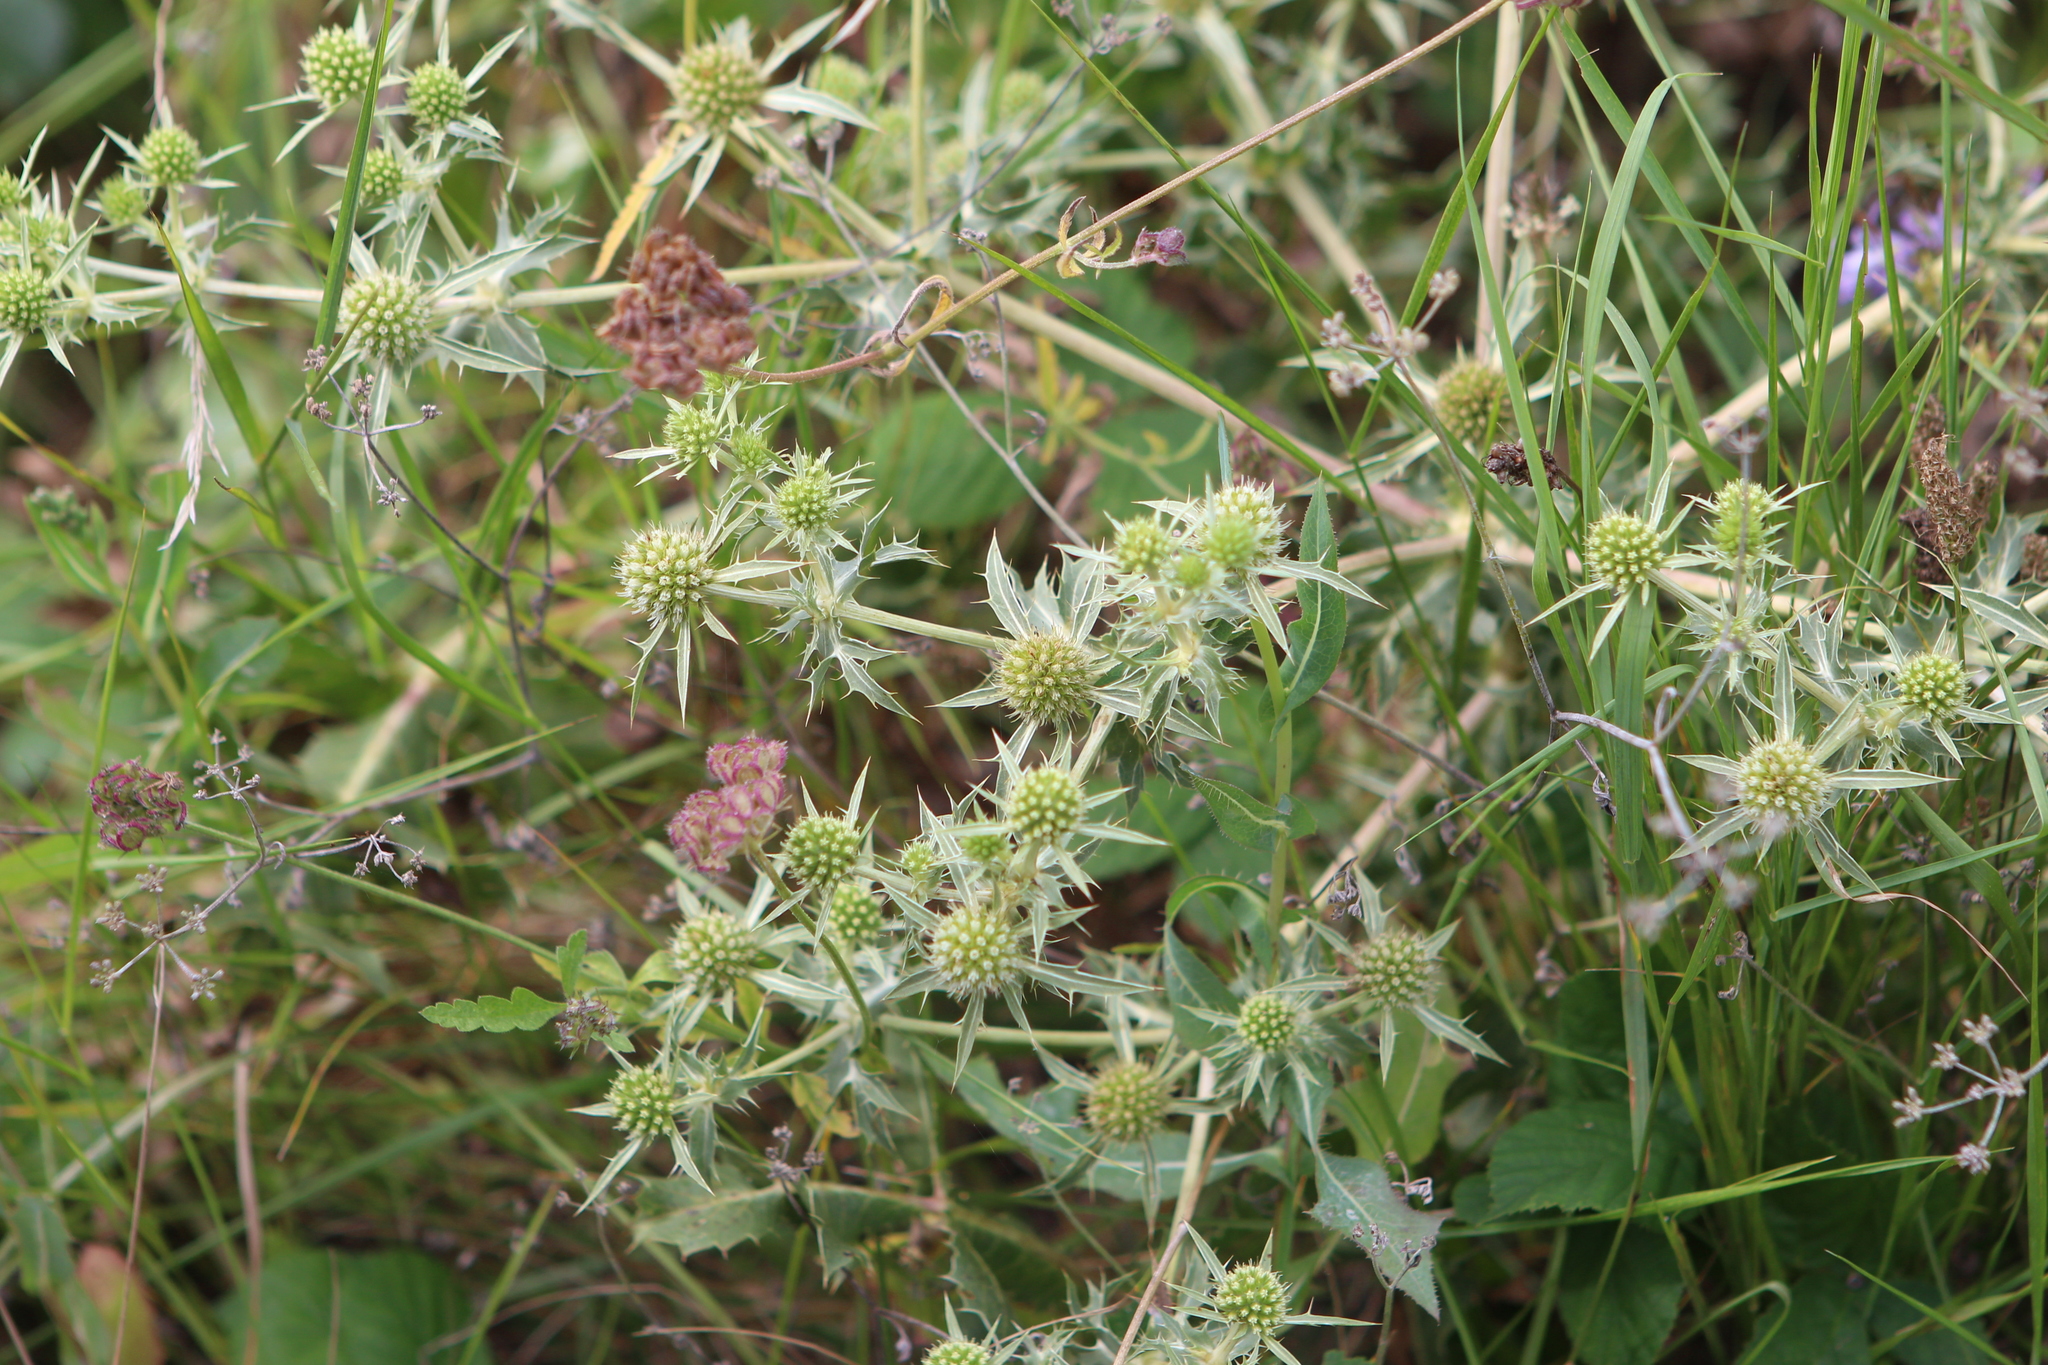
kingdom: Plantae
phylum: Tracheophyta
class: Magnoliopsida
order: Apiales
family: Apiaceae
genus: Eryngium
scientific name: Eryngium campestre
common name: Field eryngo
